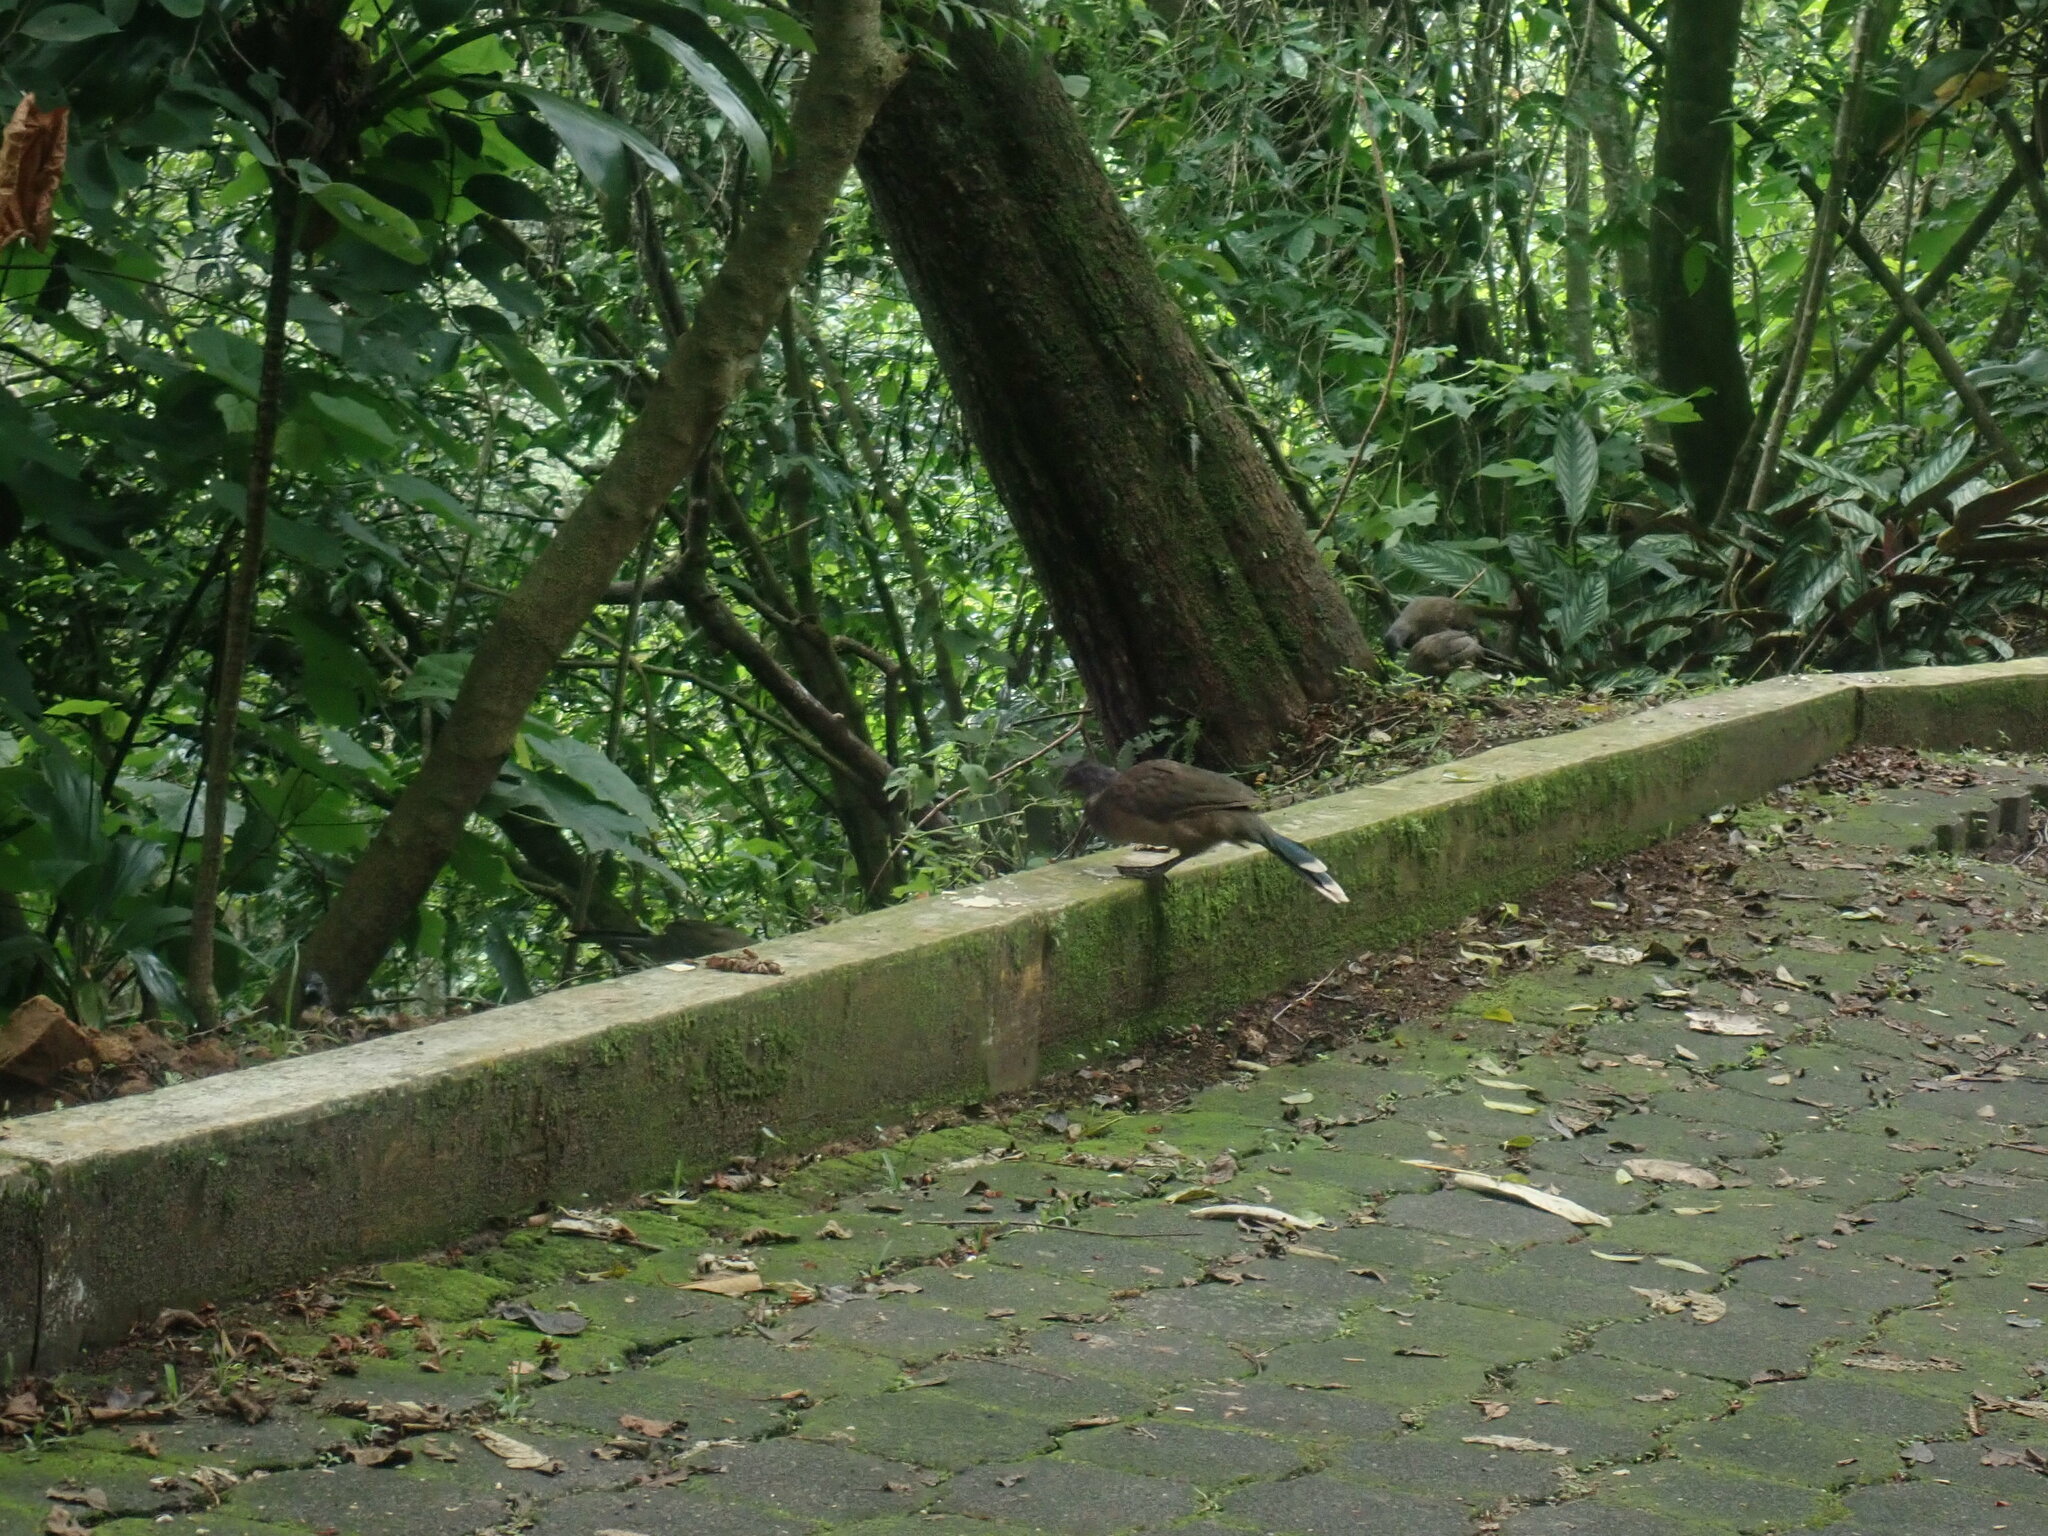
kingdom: Animalia
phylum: Chordata
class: Mammalia
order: Rodentia
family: Sciuridae
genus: Sciurus
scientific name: Sciurus aureogaster
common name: Red-bellied squirrel
